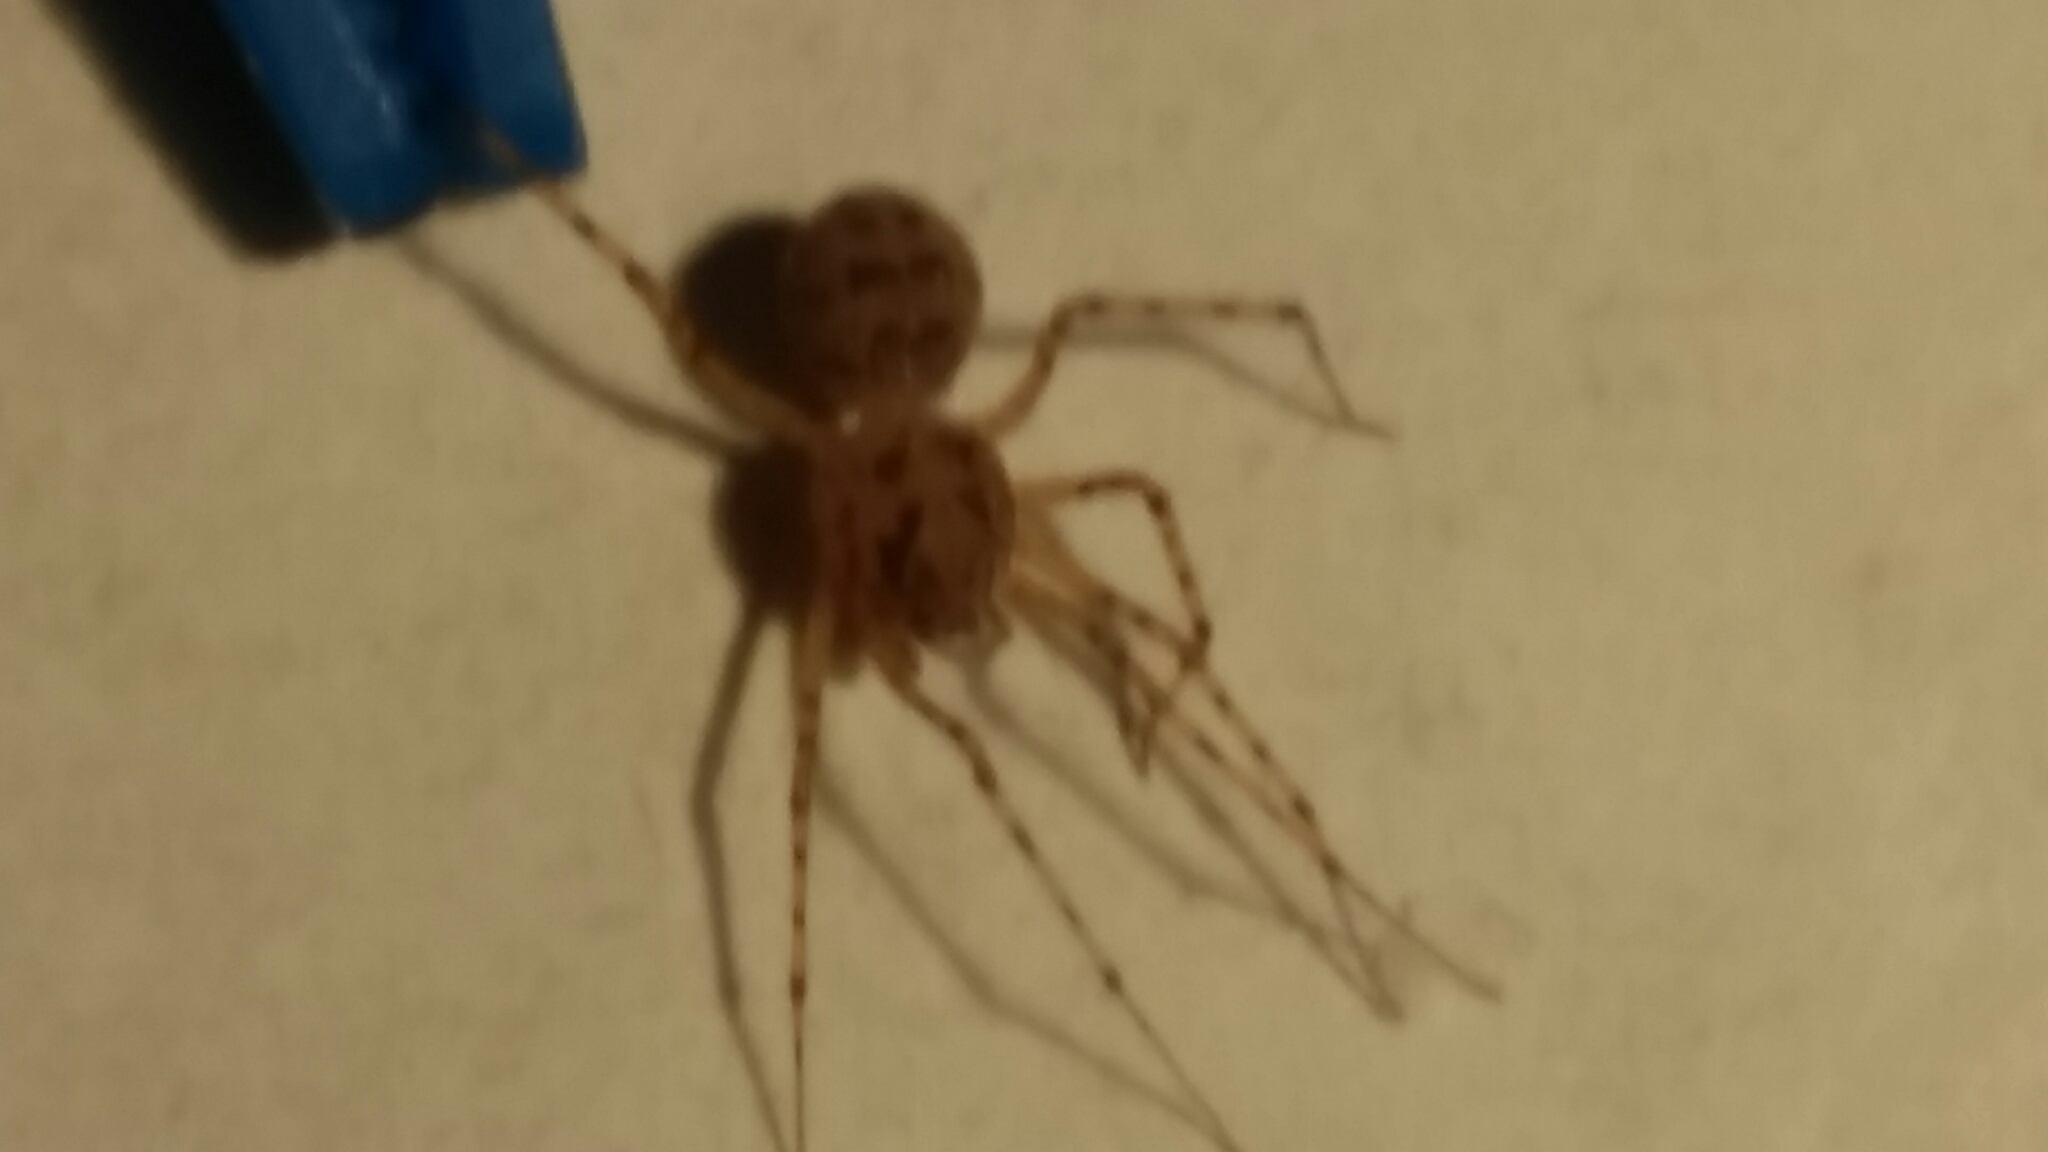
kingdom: Animalia
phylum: Arthropoda
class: Arachnida
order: Araneae
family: Scytodidae
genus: Scytodes
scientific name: Scytodes thoracica
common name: Spitting spider
